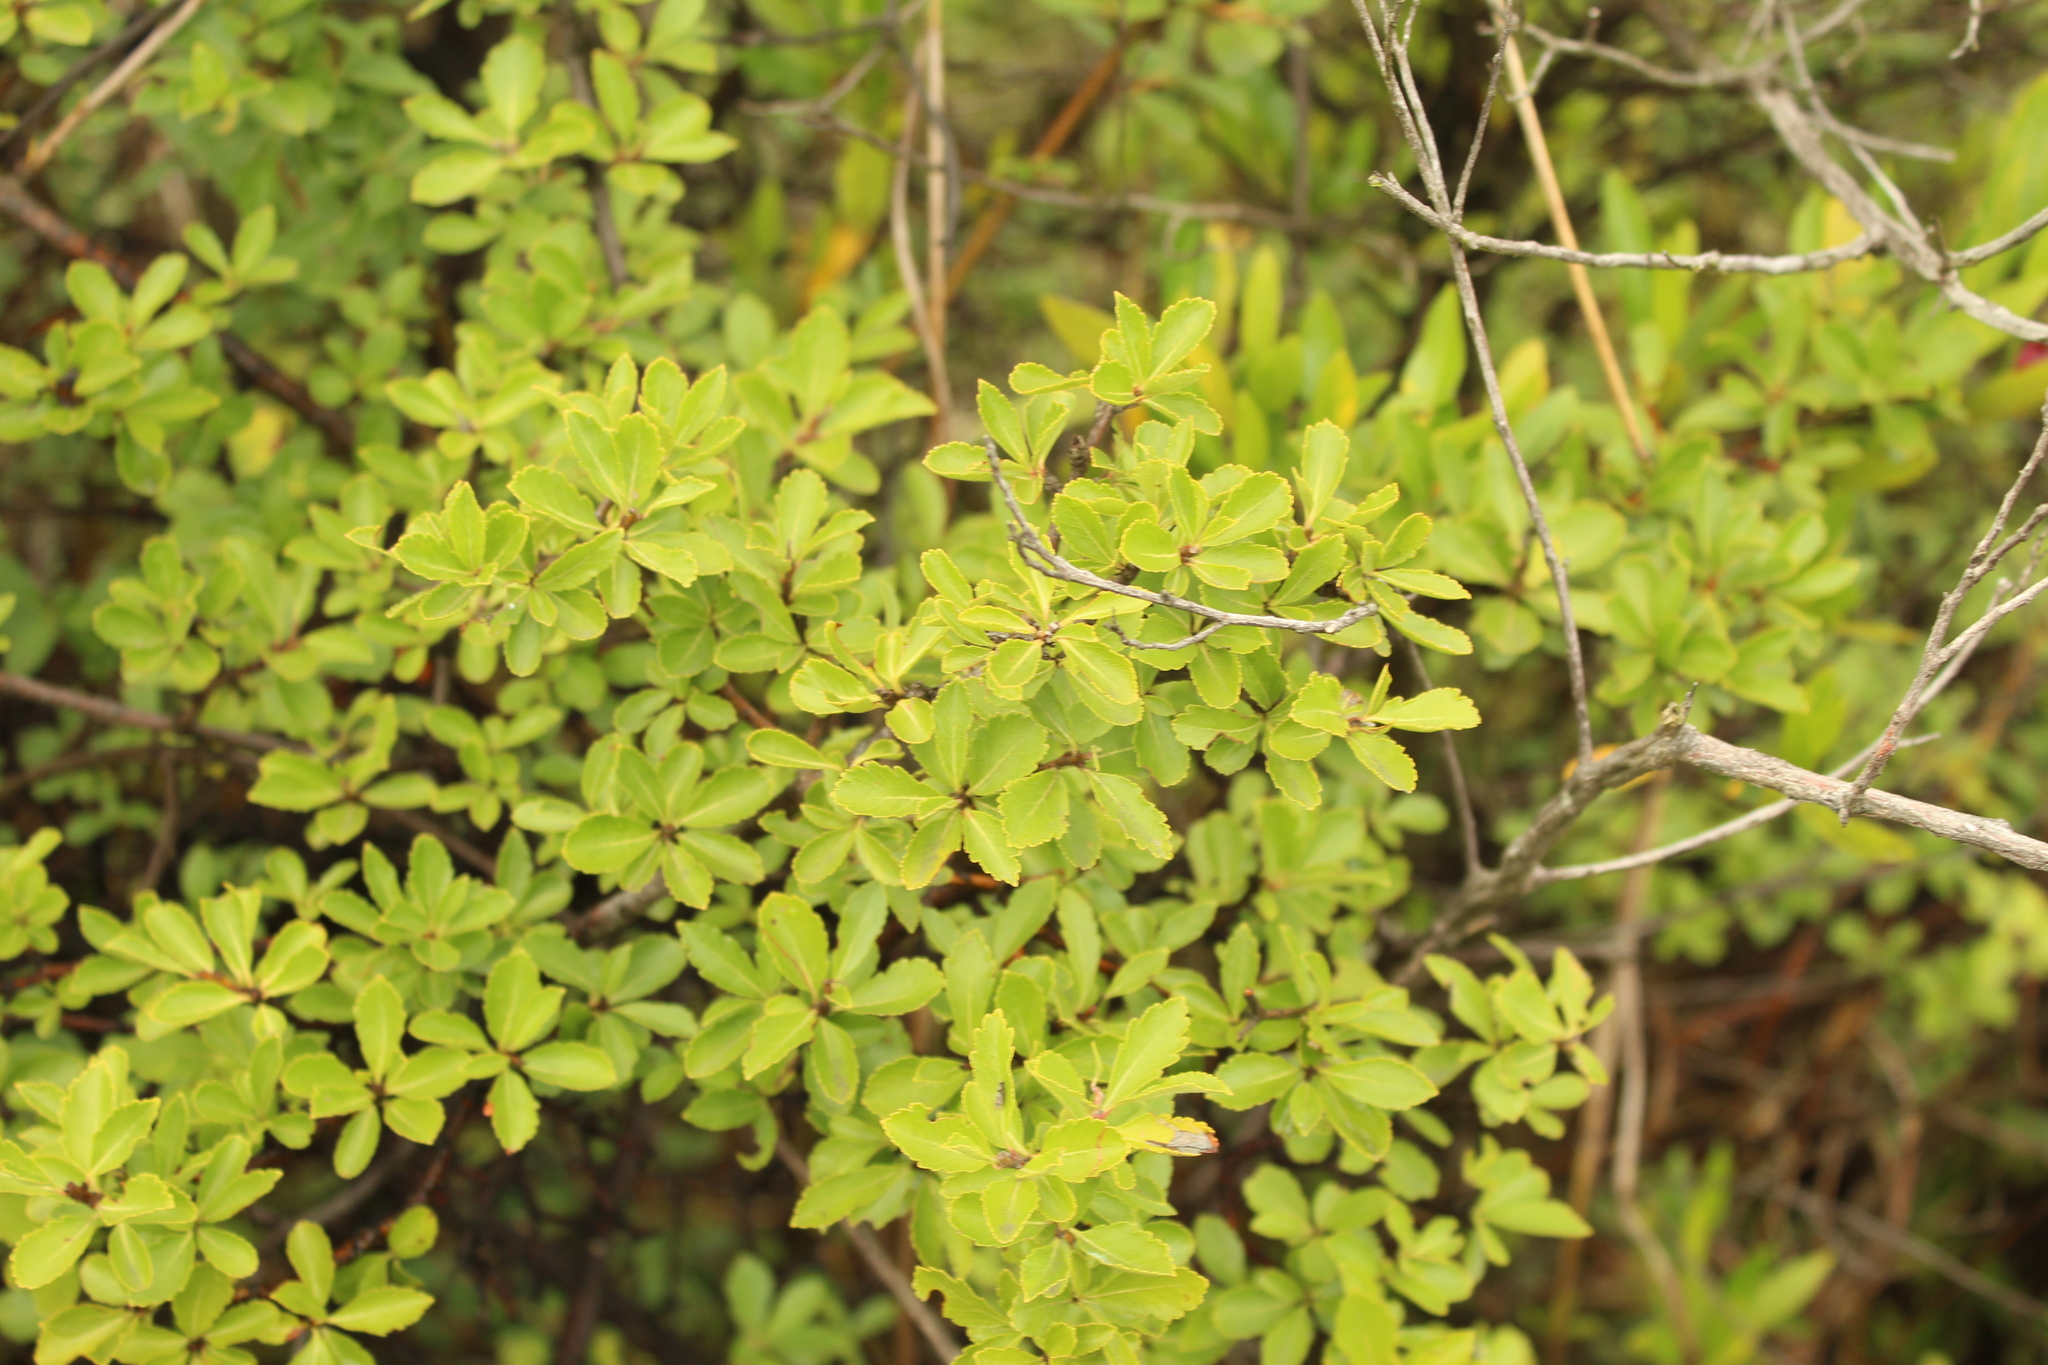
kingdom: Plantae
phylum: Tracheophyta
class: Magnoliopsida
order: Rosales
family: Rosaceae
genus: Hesperomeles
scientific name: Hesperomeles obtusifolia
